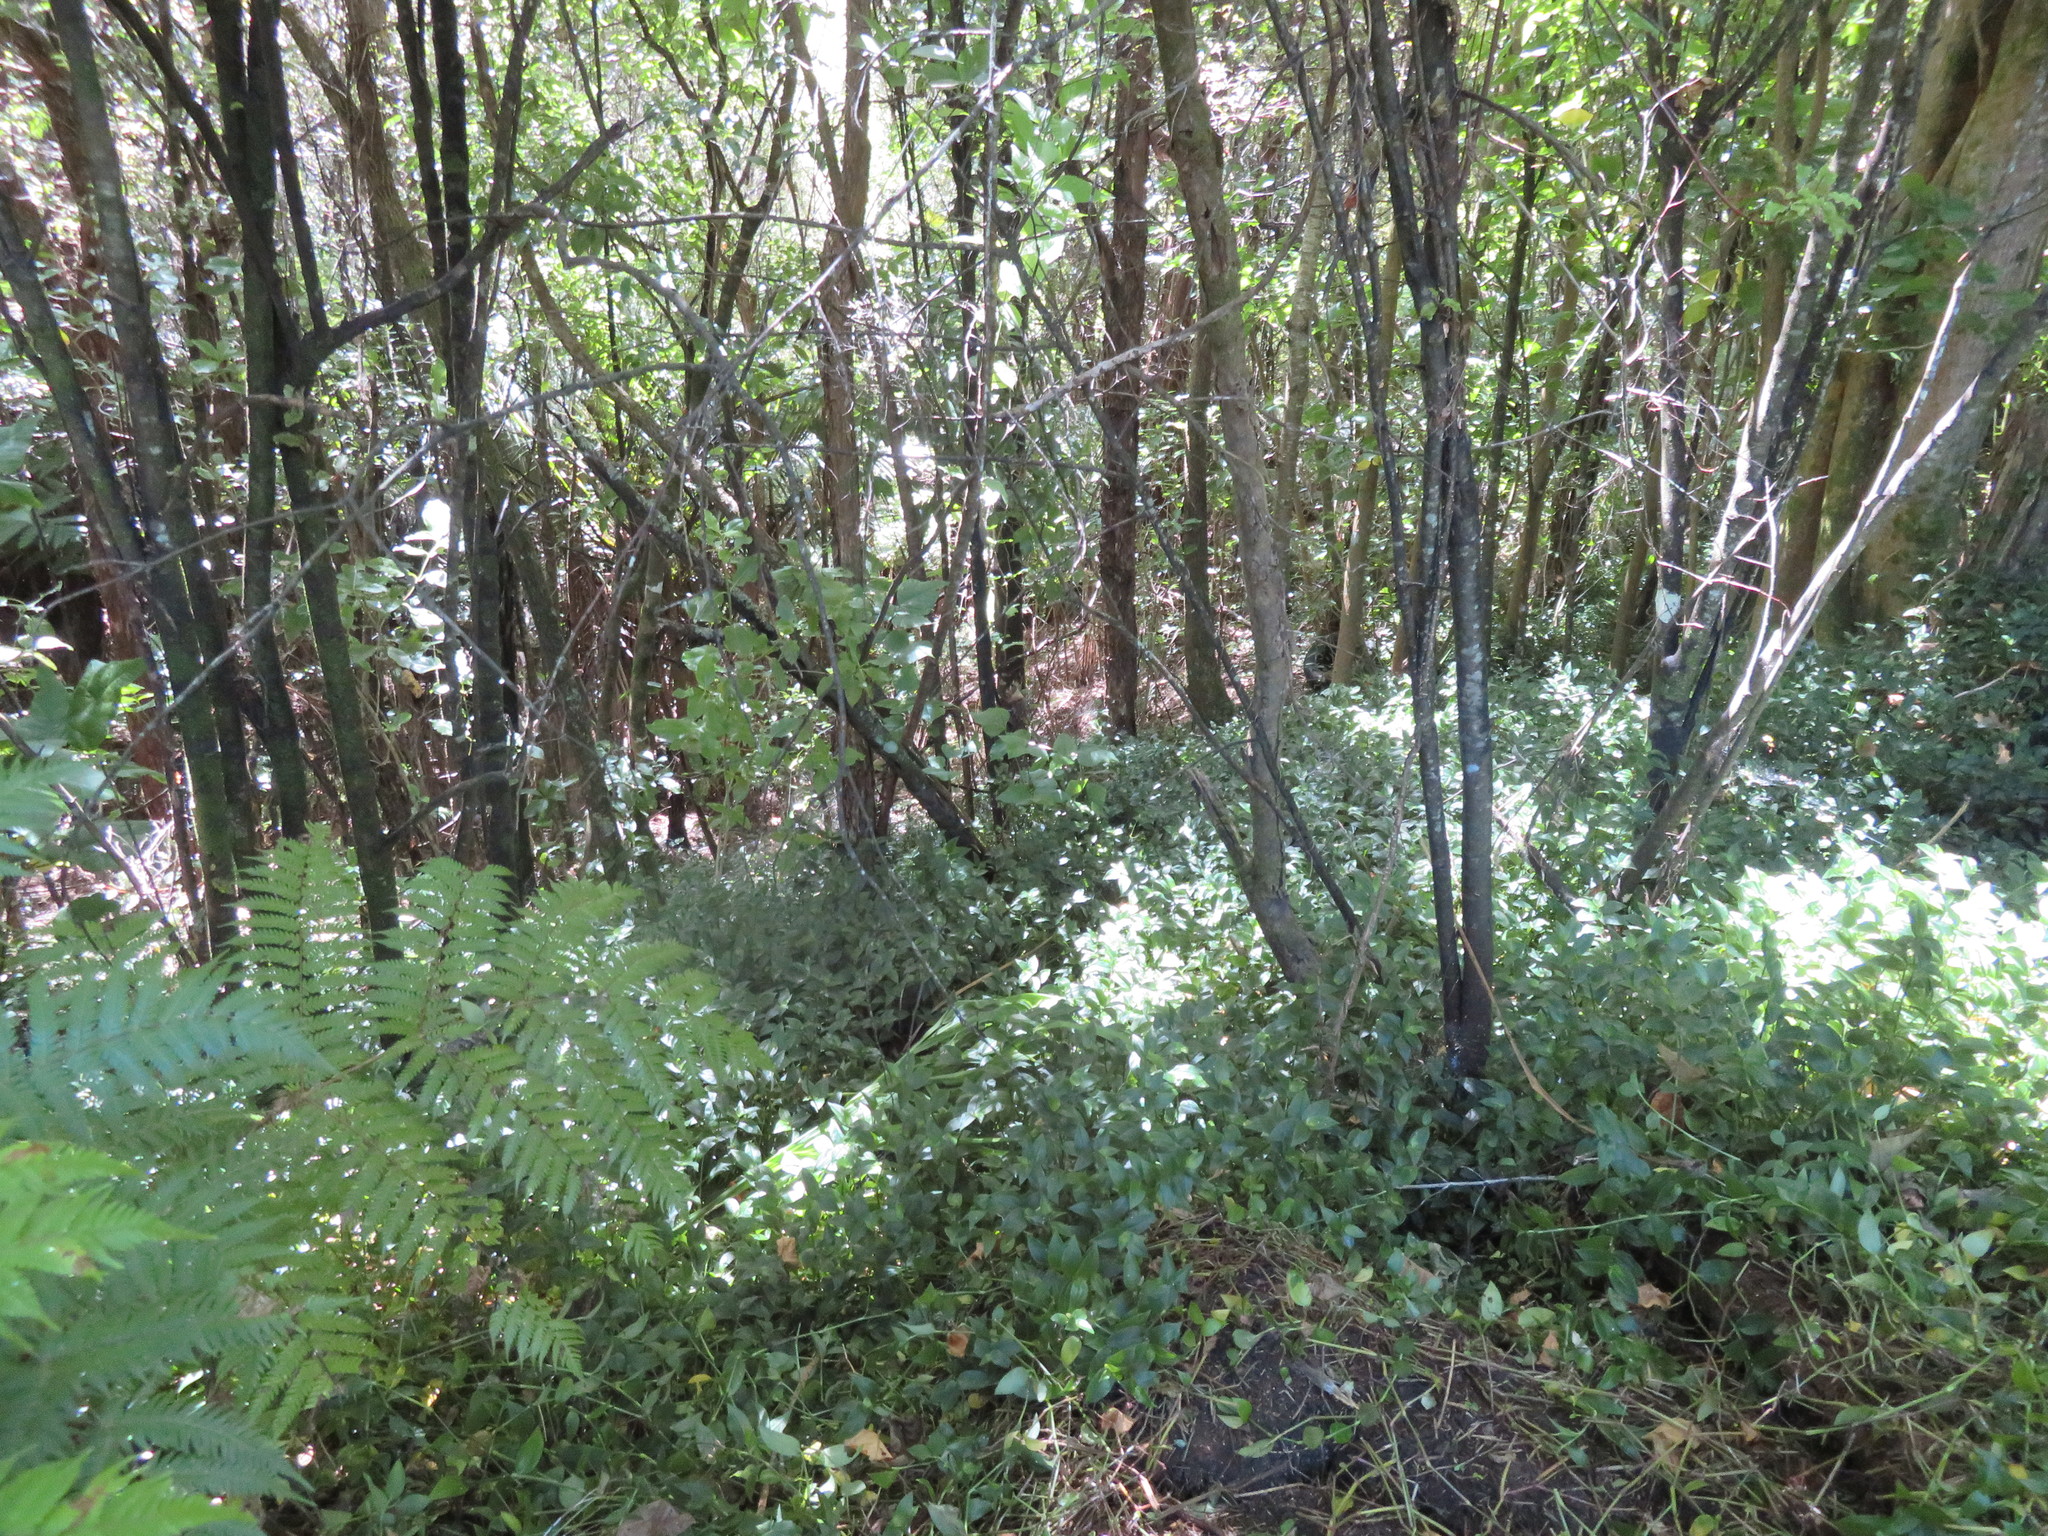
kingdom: Plantae
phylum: Tracheophyta
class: Liliopsida
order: Commelinales
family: Commelinaceae
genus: Tradescantia
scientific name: Tradescantia fluminensis
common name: Wandering-jew
